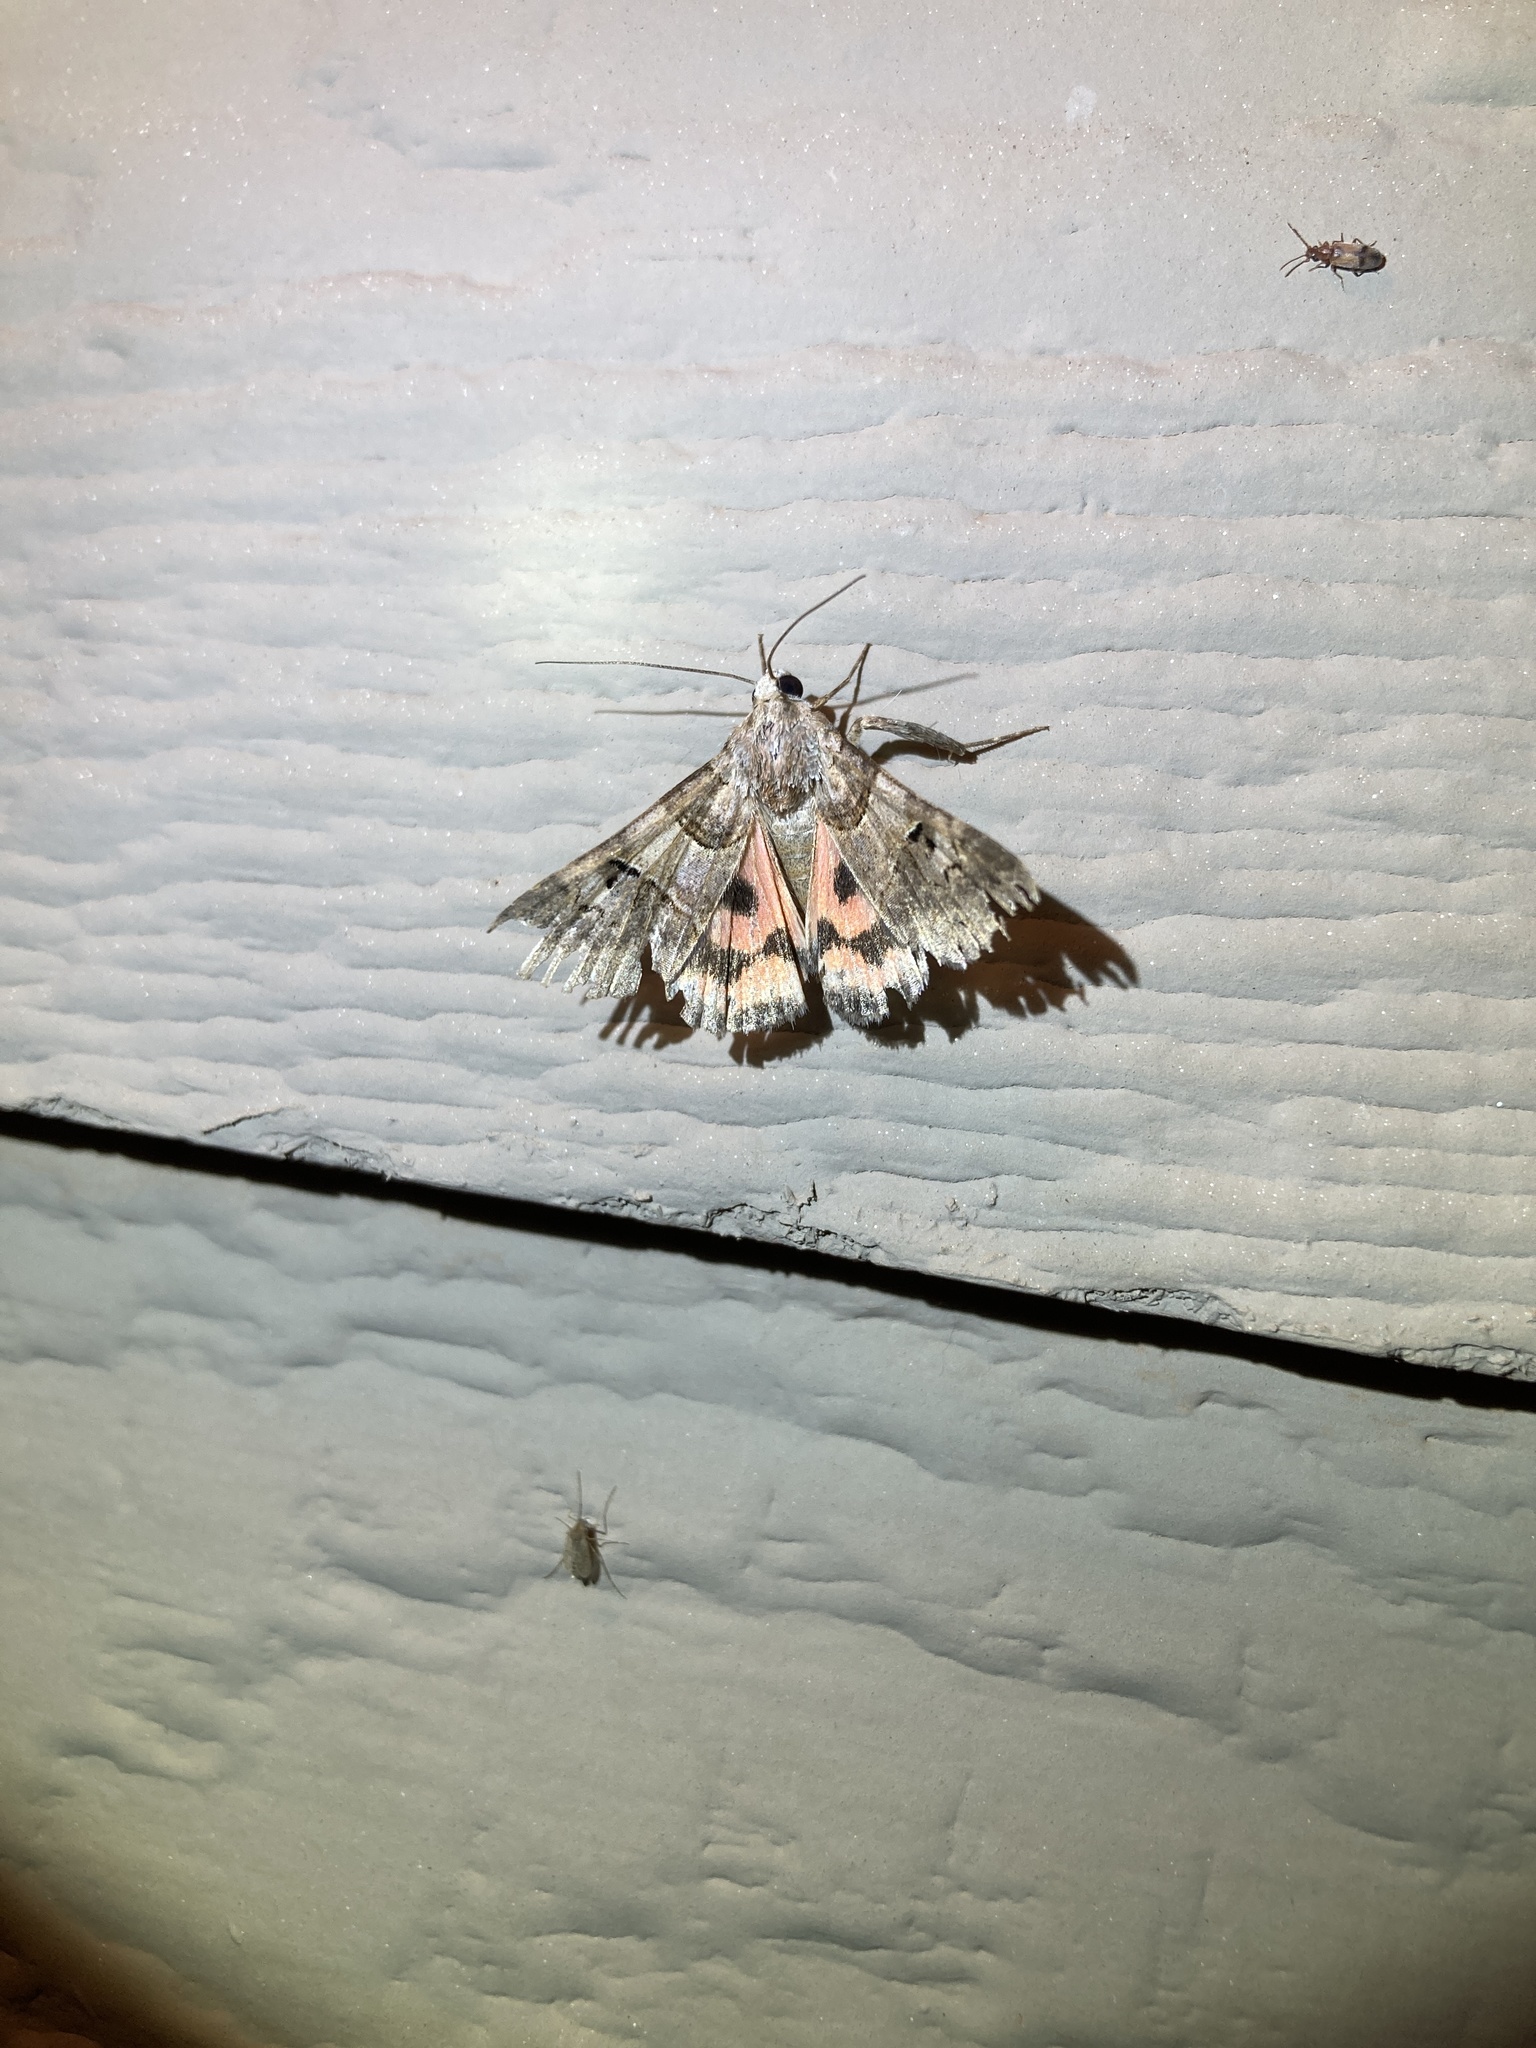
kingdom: Animalia
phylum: Arthropoda
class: Insecta
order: Lepidoptera
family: Erebidae
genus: Drasteria
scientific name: Drasteria ingeniculata
